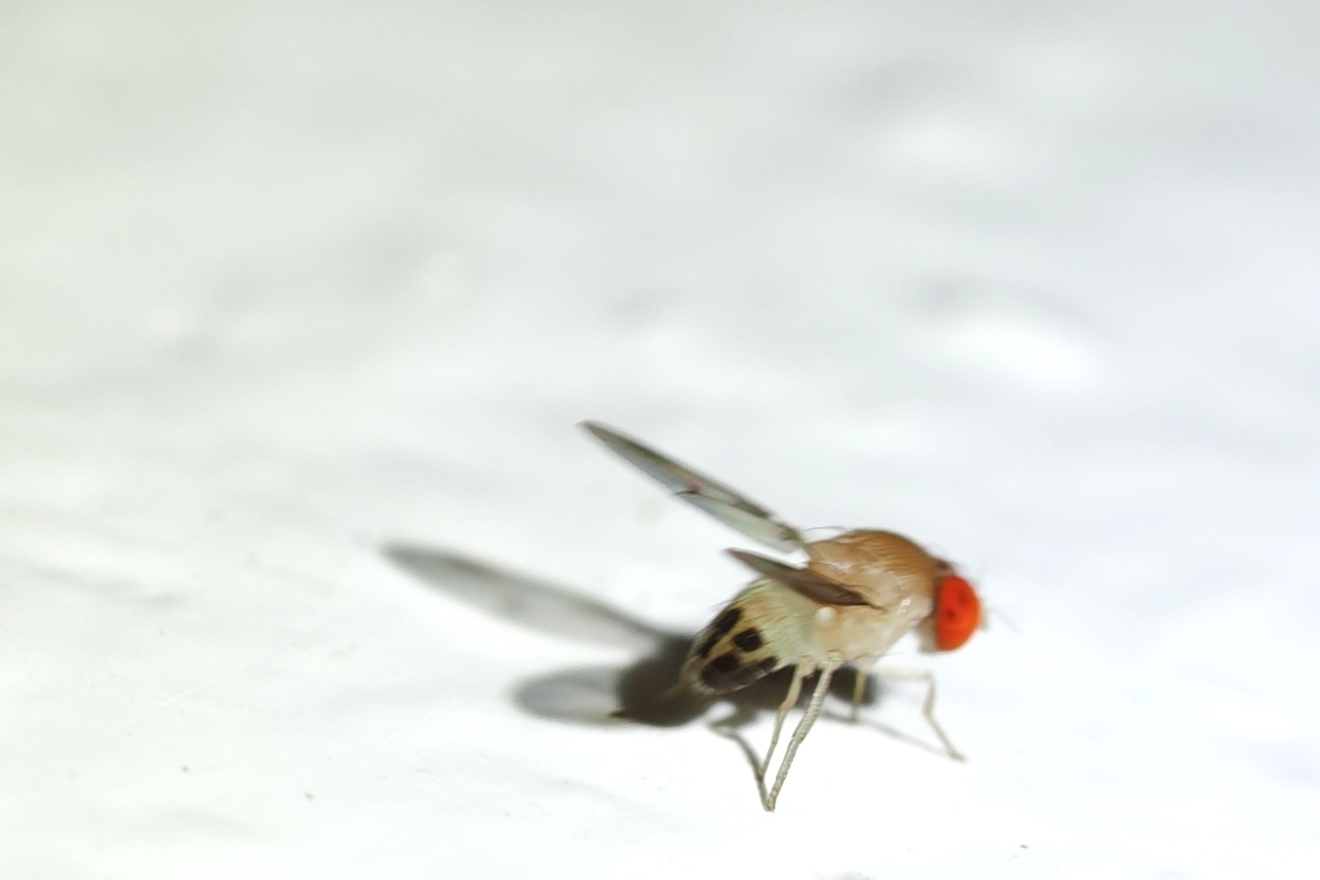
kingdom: Animalia
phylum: Arthropoda
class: Insecta
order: Diptera
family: Drosophilidae
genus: Leucophenga
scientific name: Leucophenga varia
